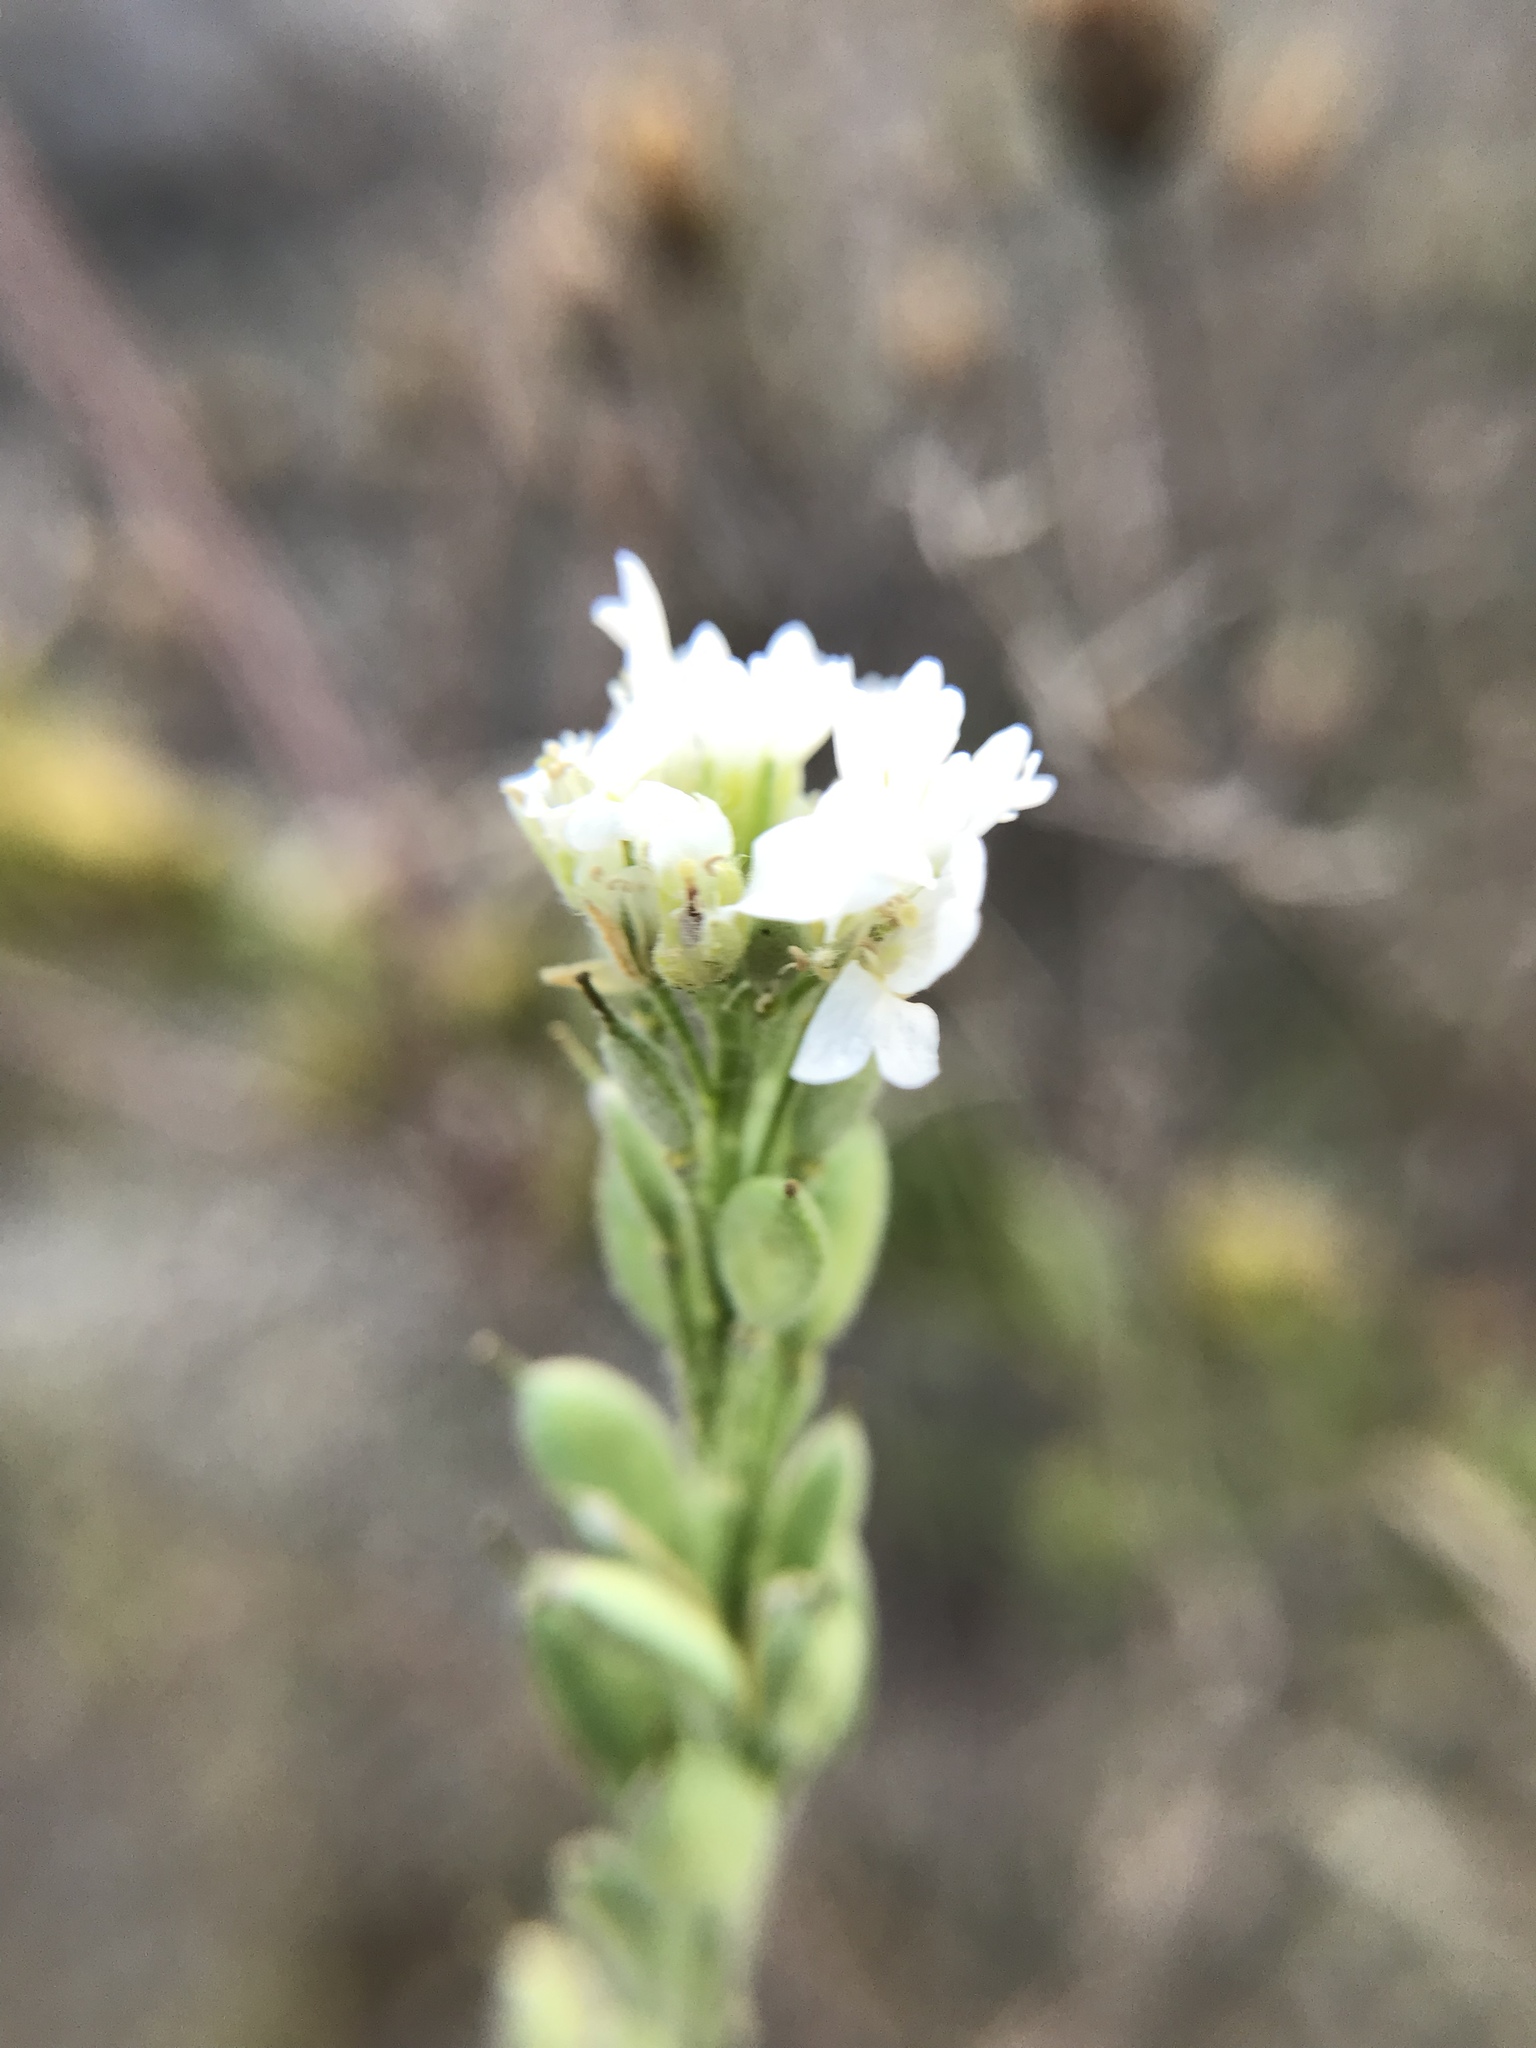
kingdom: Plantae
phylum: Tracheophyta
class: Magnoliopsida
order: Brassicales
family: Brassicaceae
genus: Berteroa
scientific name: Berteroa incana
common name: Hoary alison
